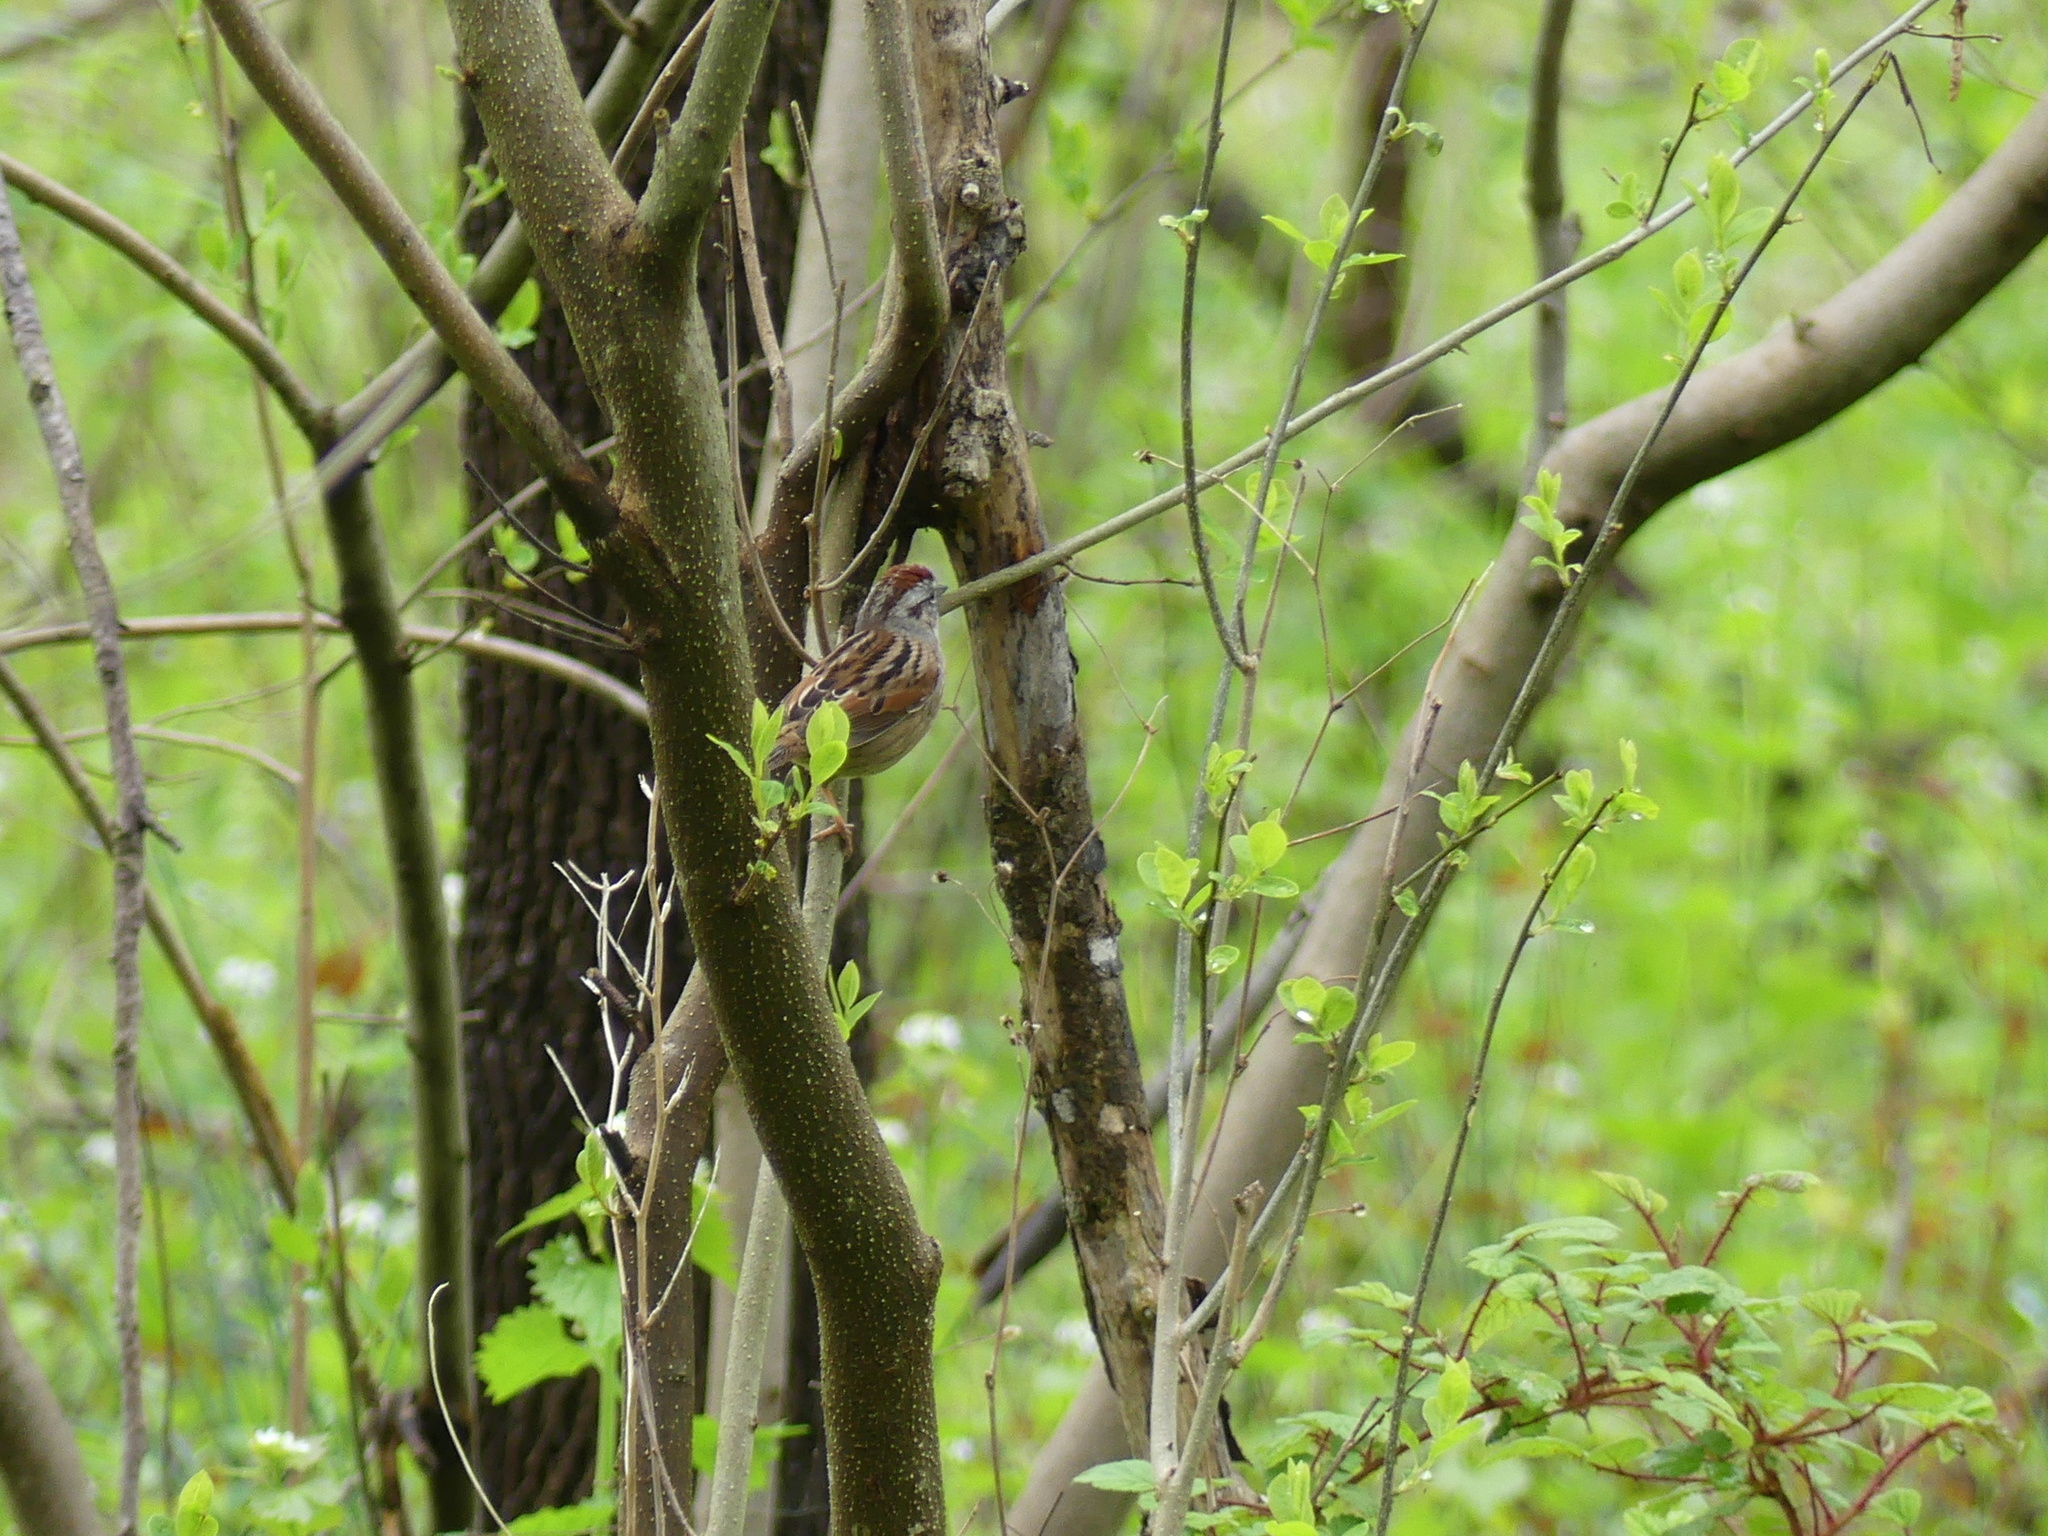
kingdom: Animalia
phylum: Chordata
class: Aves
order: Passeriformes
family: Passerellidae
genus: Melospiza
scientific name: Melospiza georgiana
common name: Swamp sparrow
